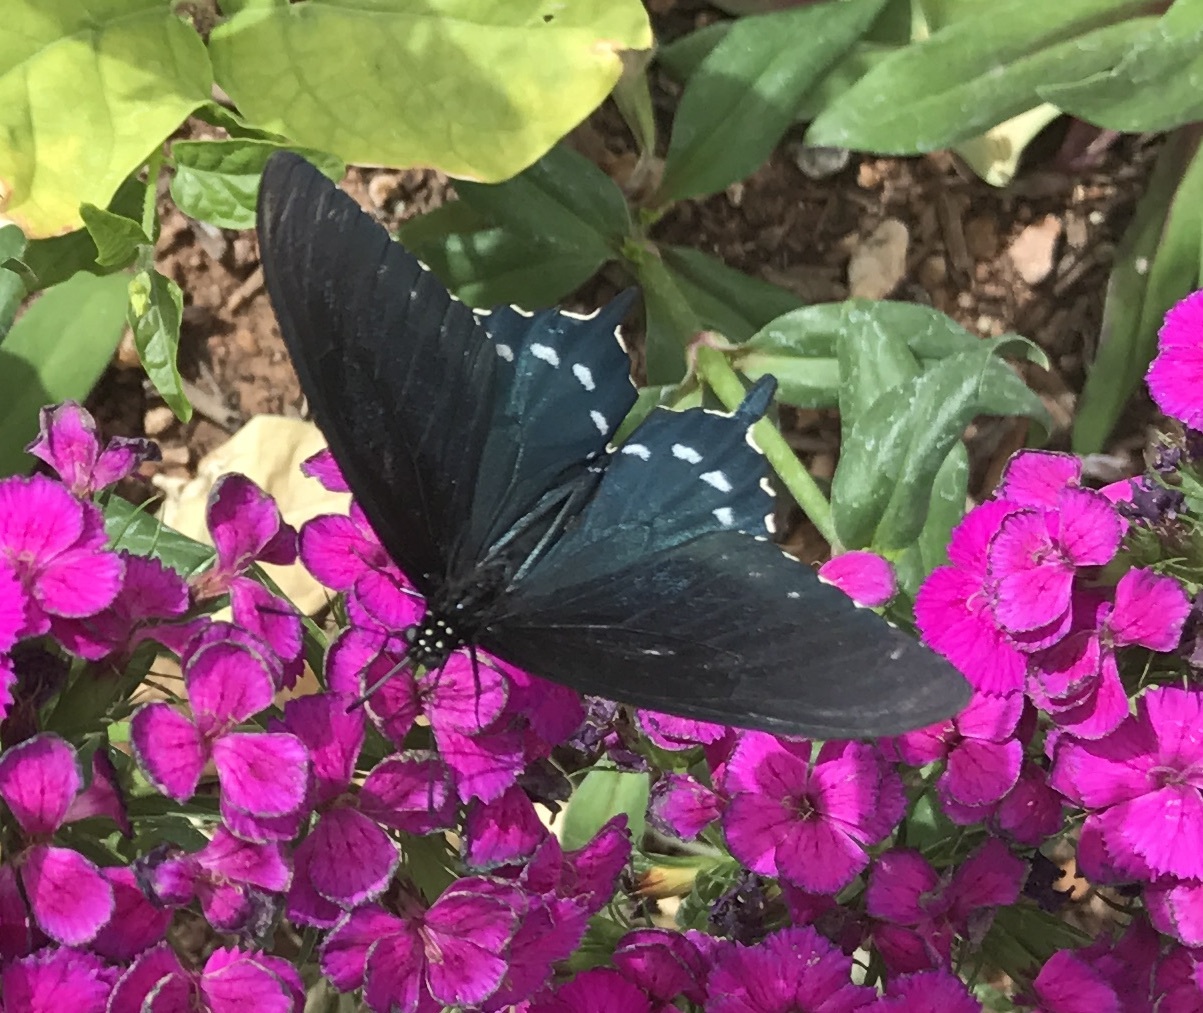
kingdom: Animalia
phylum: Arthropoda
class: Insecta
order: Lepidoptera
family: Papilionidae
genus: Battus
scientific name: Battus philenor
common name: Pipevine swallowtail
